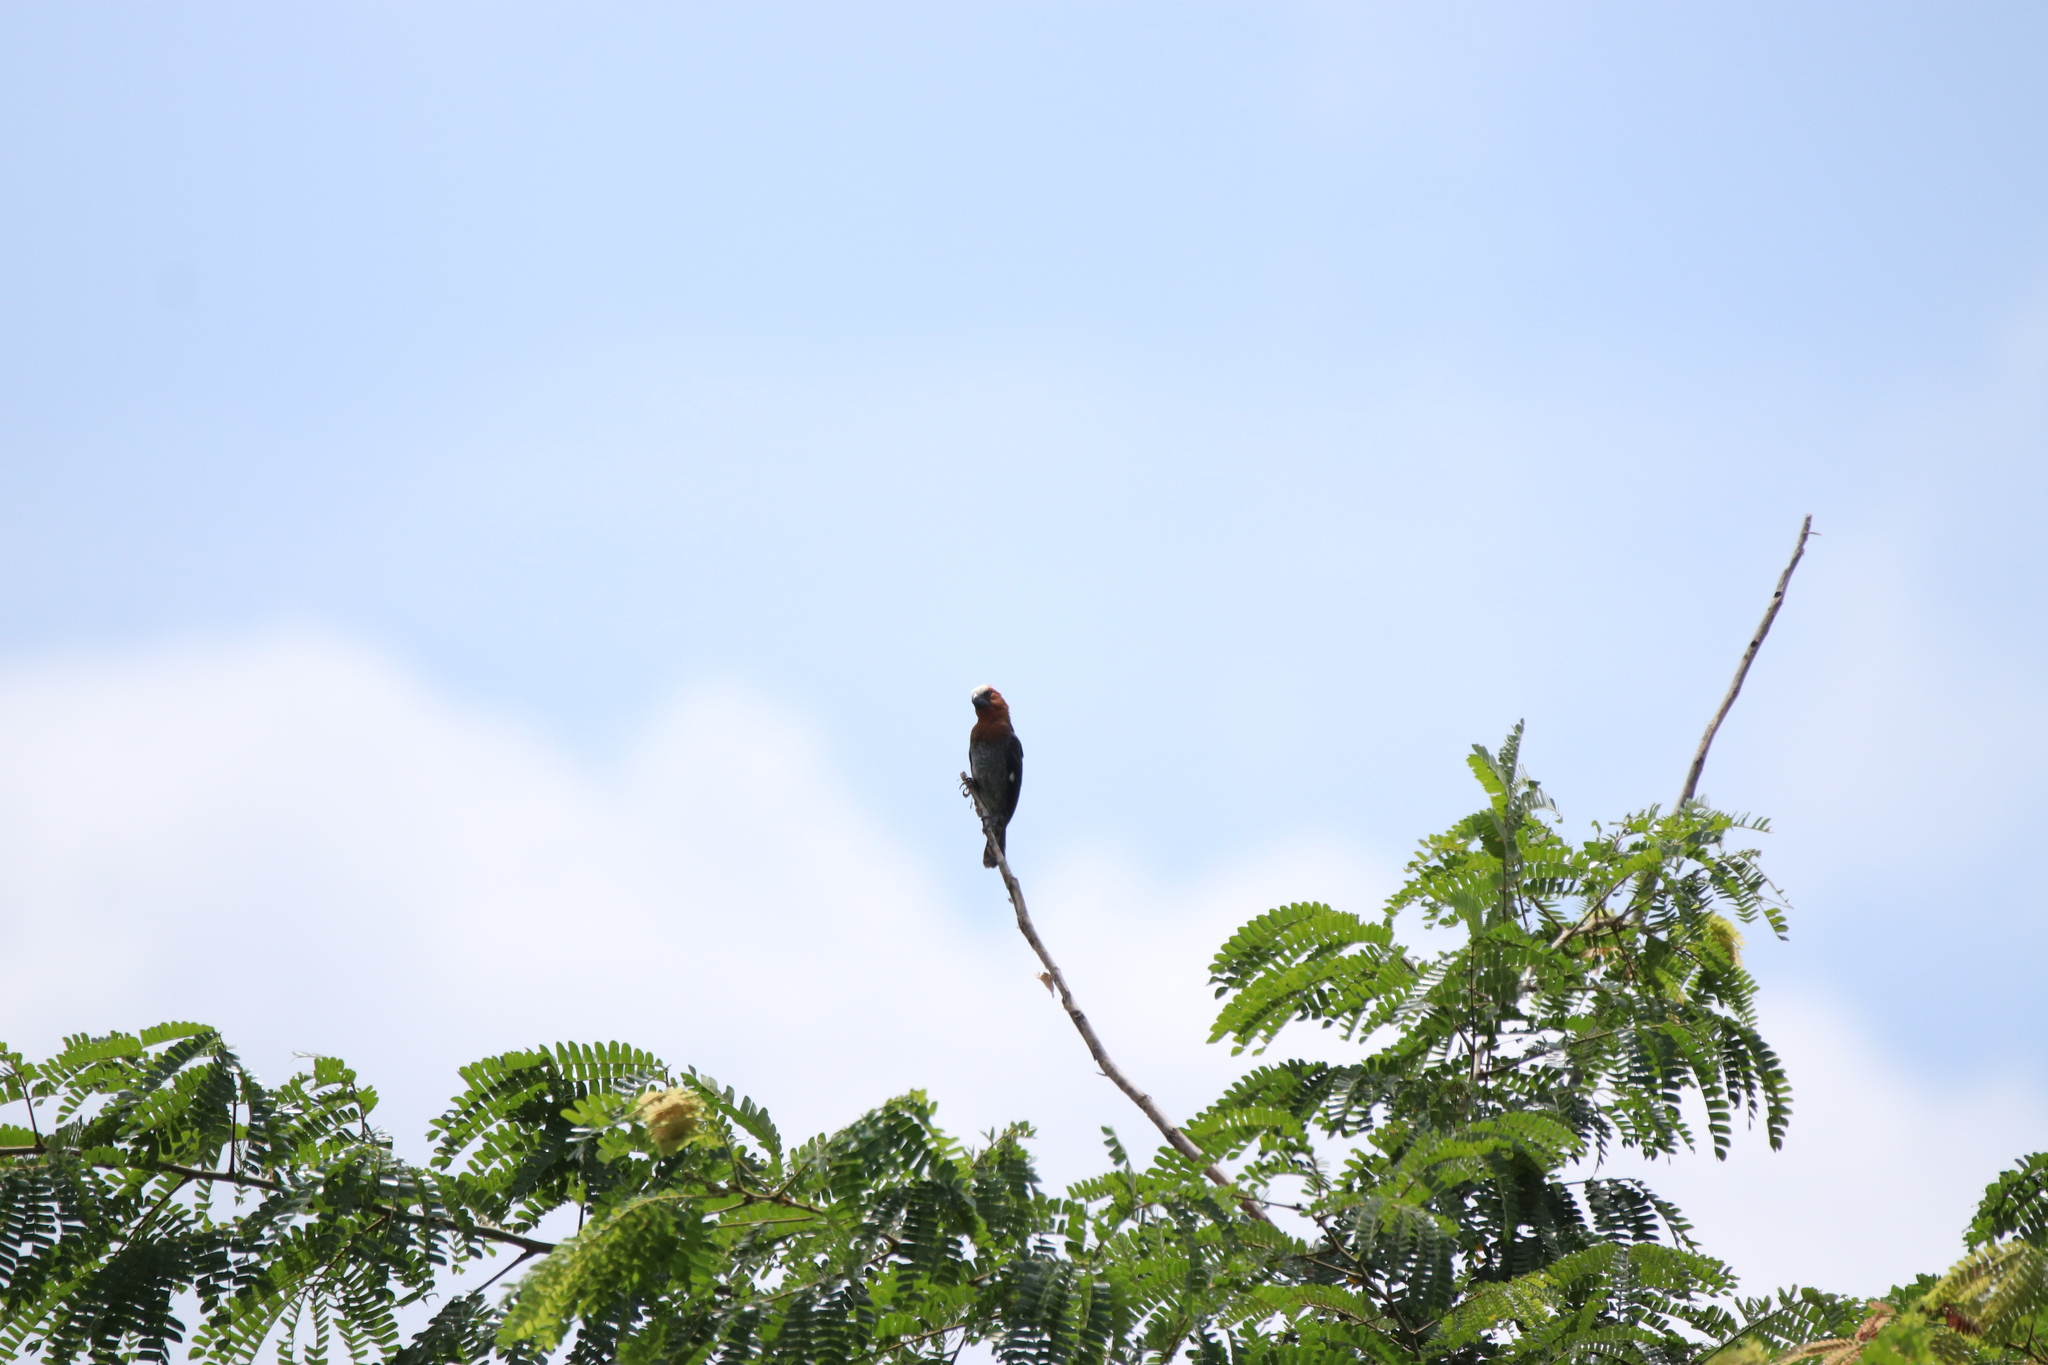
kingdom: Animalia
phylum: Chordata
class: Aves
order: Passeriformes
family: Ploceidae
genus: Amblyospiza
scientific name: Amblyospiza albifrons
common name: Thick-billed weaver
